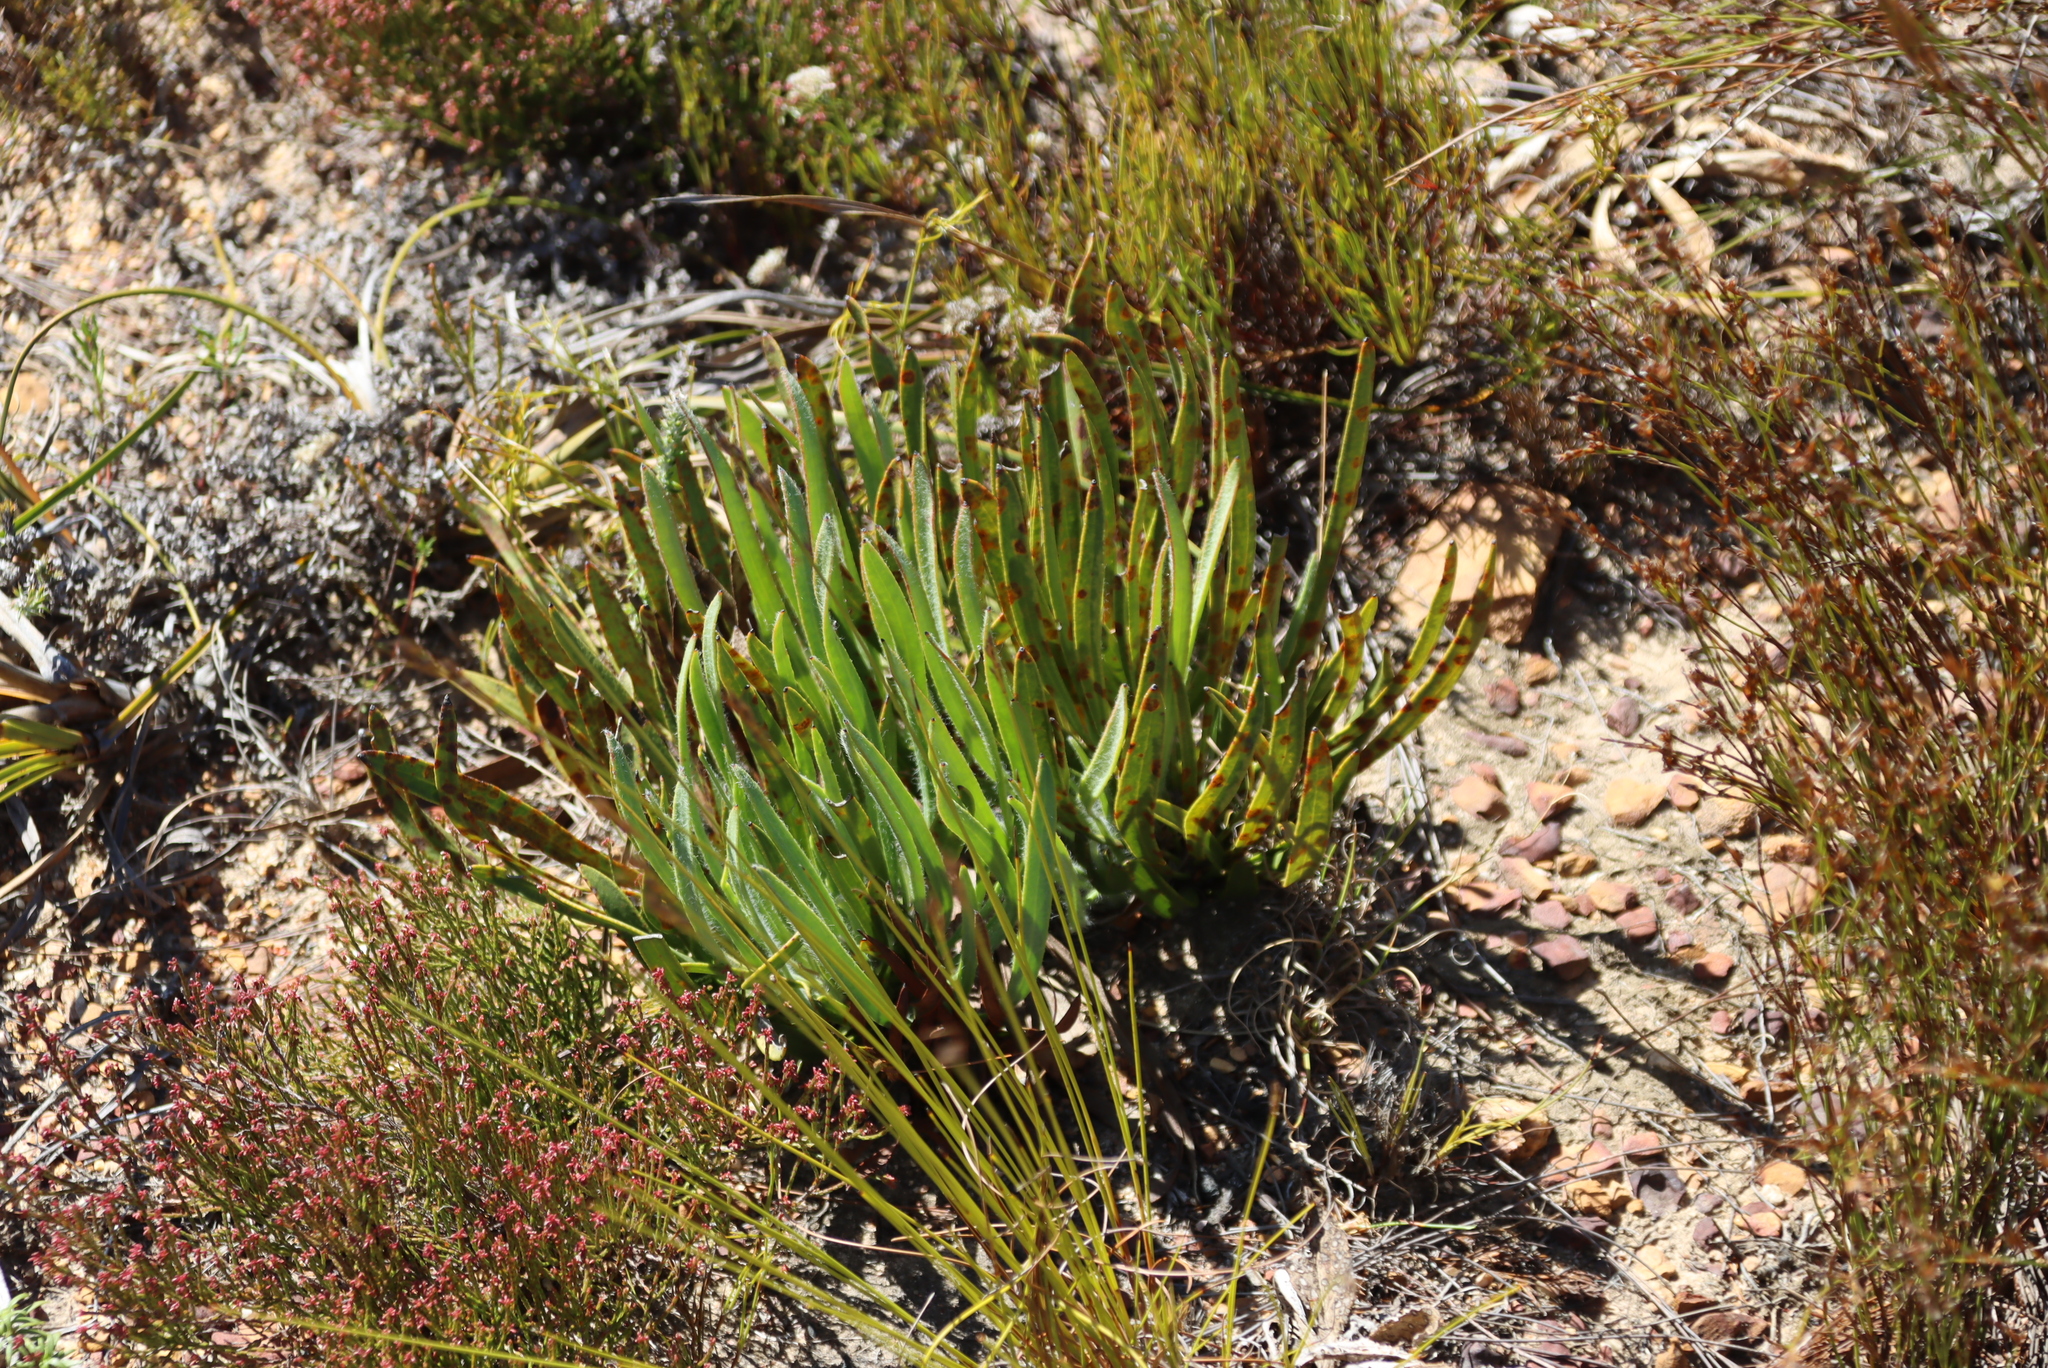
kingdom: Plantae
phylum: Tracheophyta
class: Magnoliopsida
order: Proteales
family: Proteaceae
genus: Protea
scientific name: Protea scabra
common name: Sandpaper-leaf sugarbush
